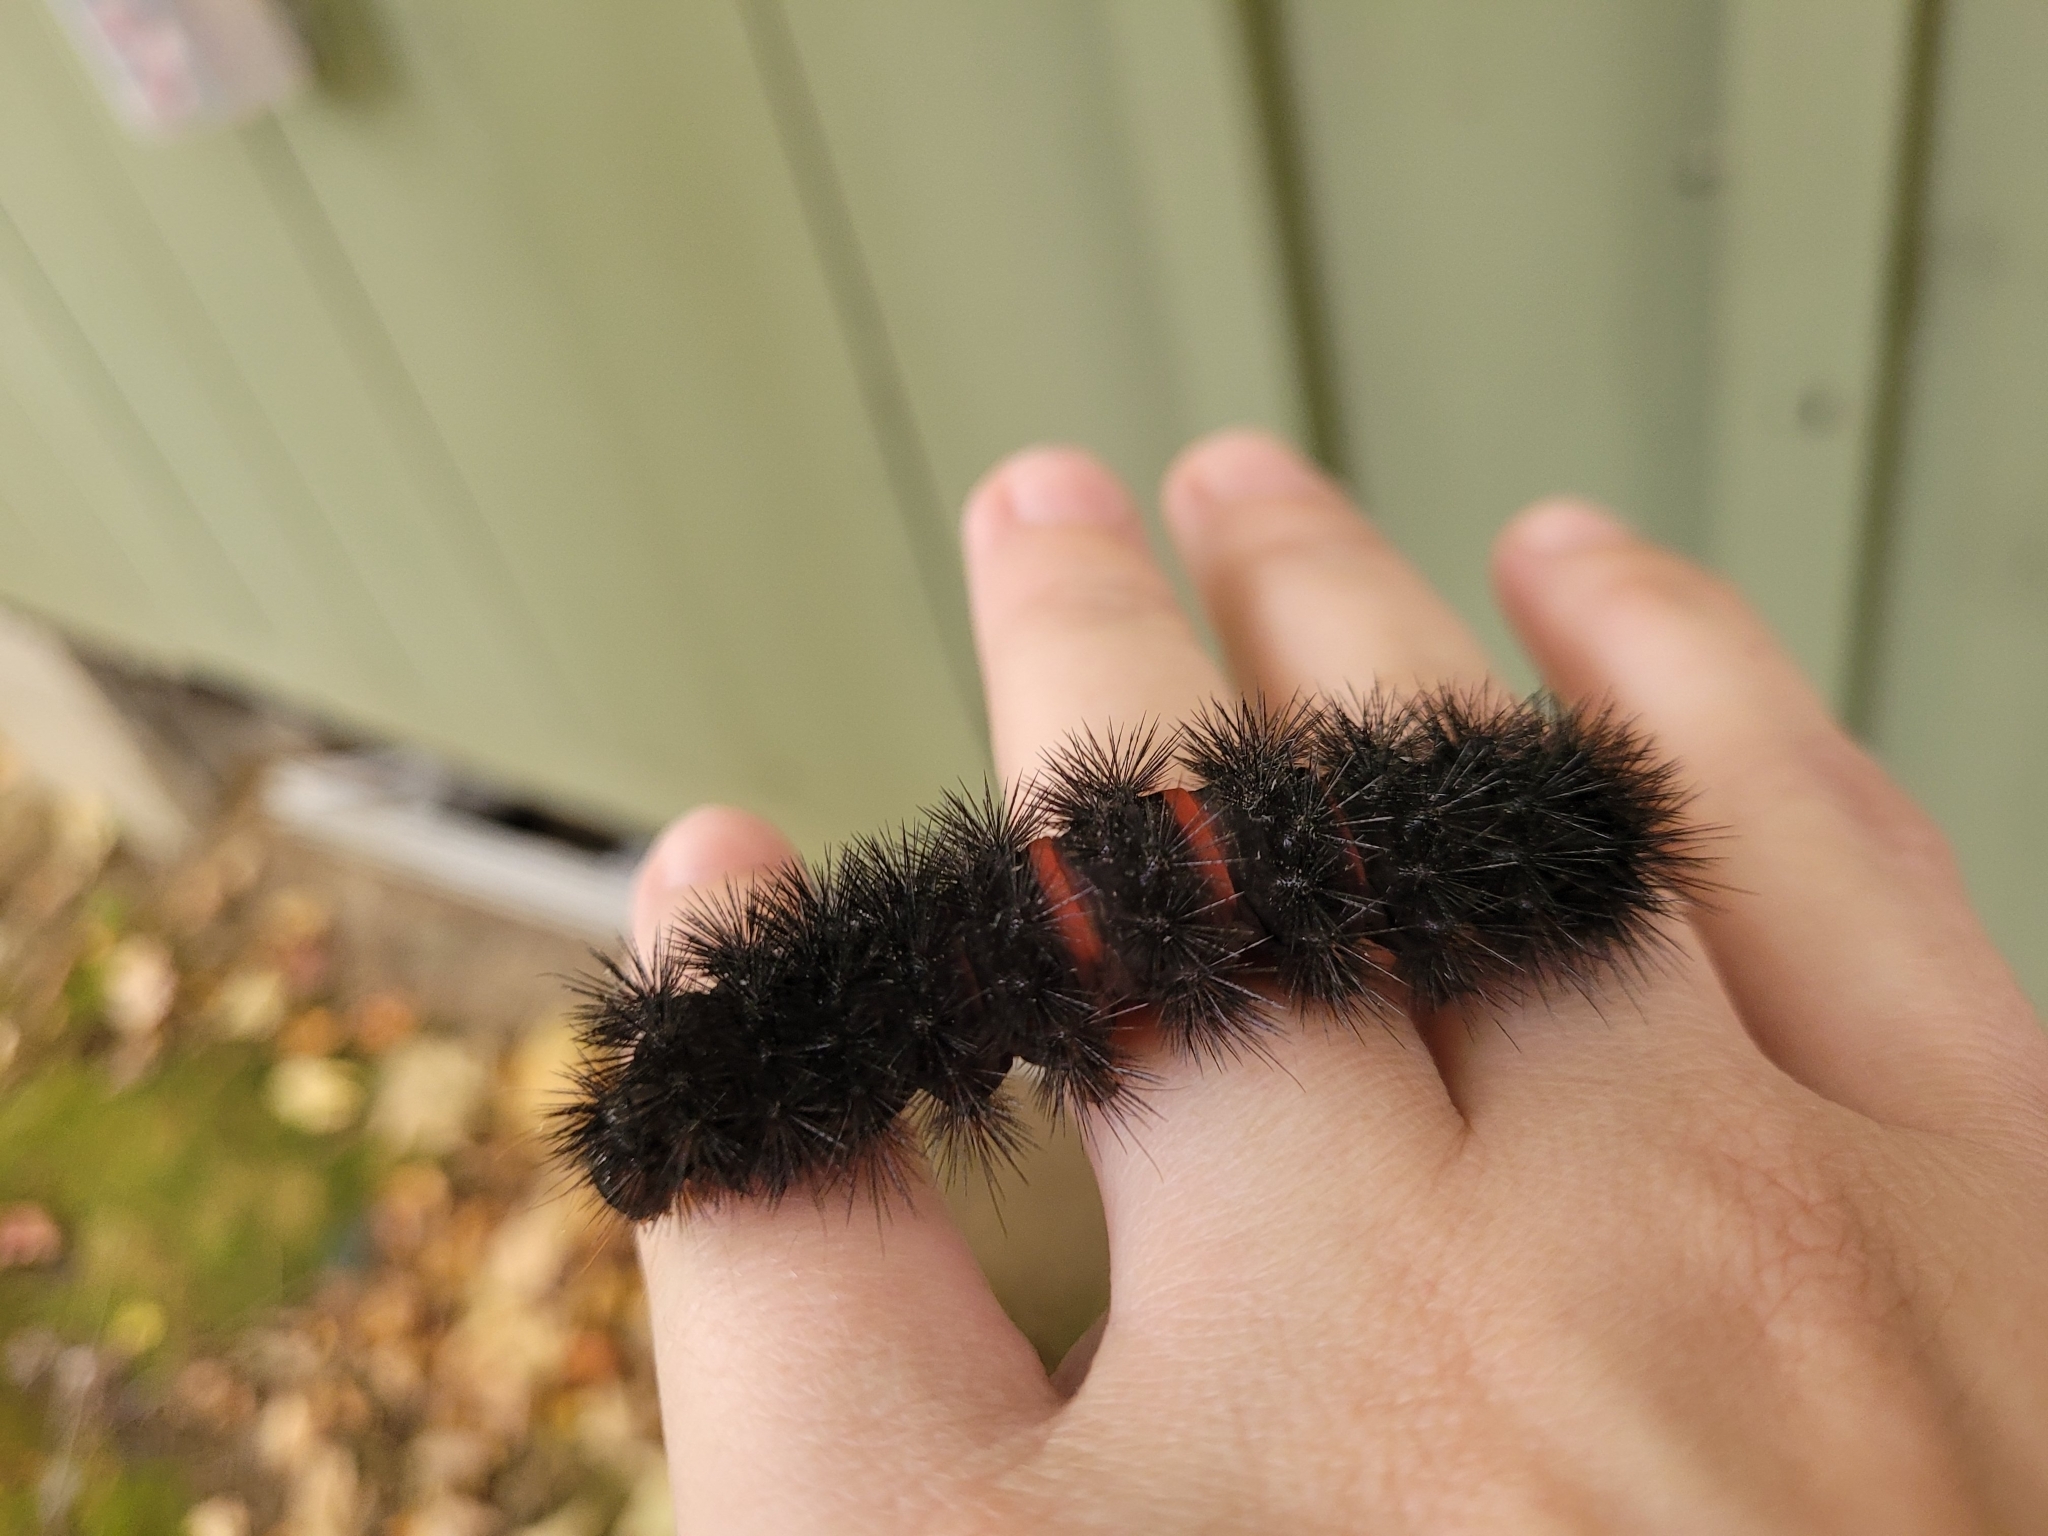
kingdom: Animalia
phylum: Arthropoda
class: Insecta
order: Lepidoptera
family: Erebidae
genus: Hypercompe
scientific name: Hypercompe scribonia
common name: Giant leopard moth
